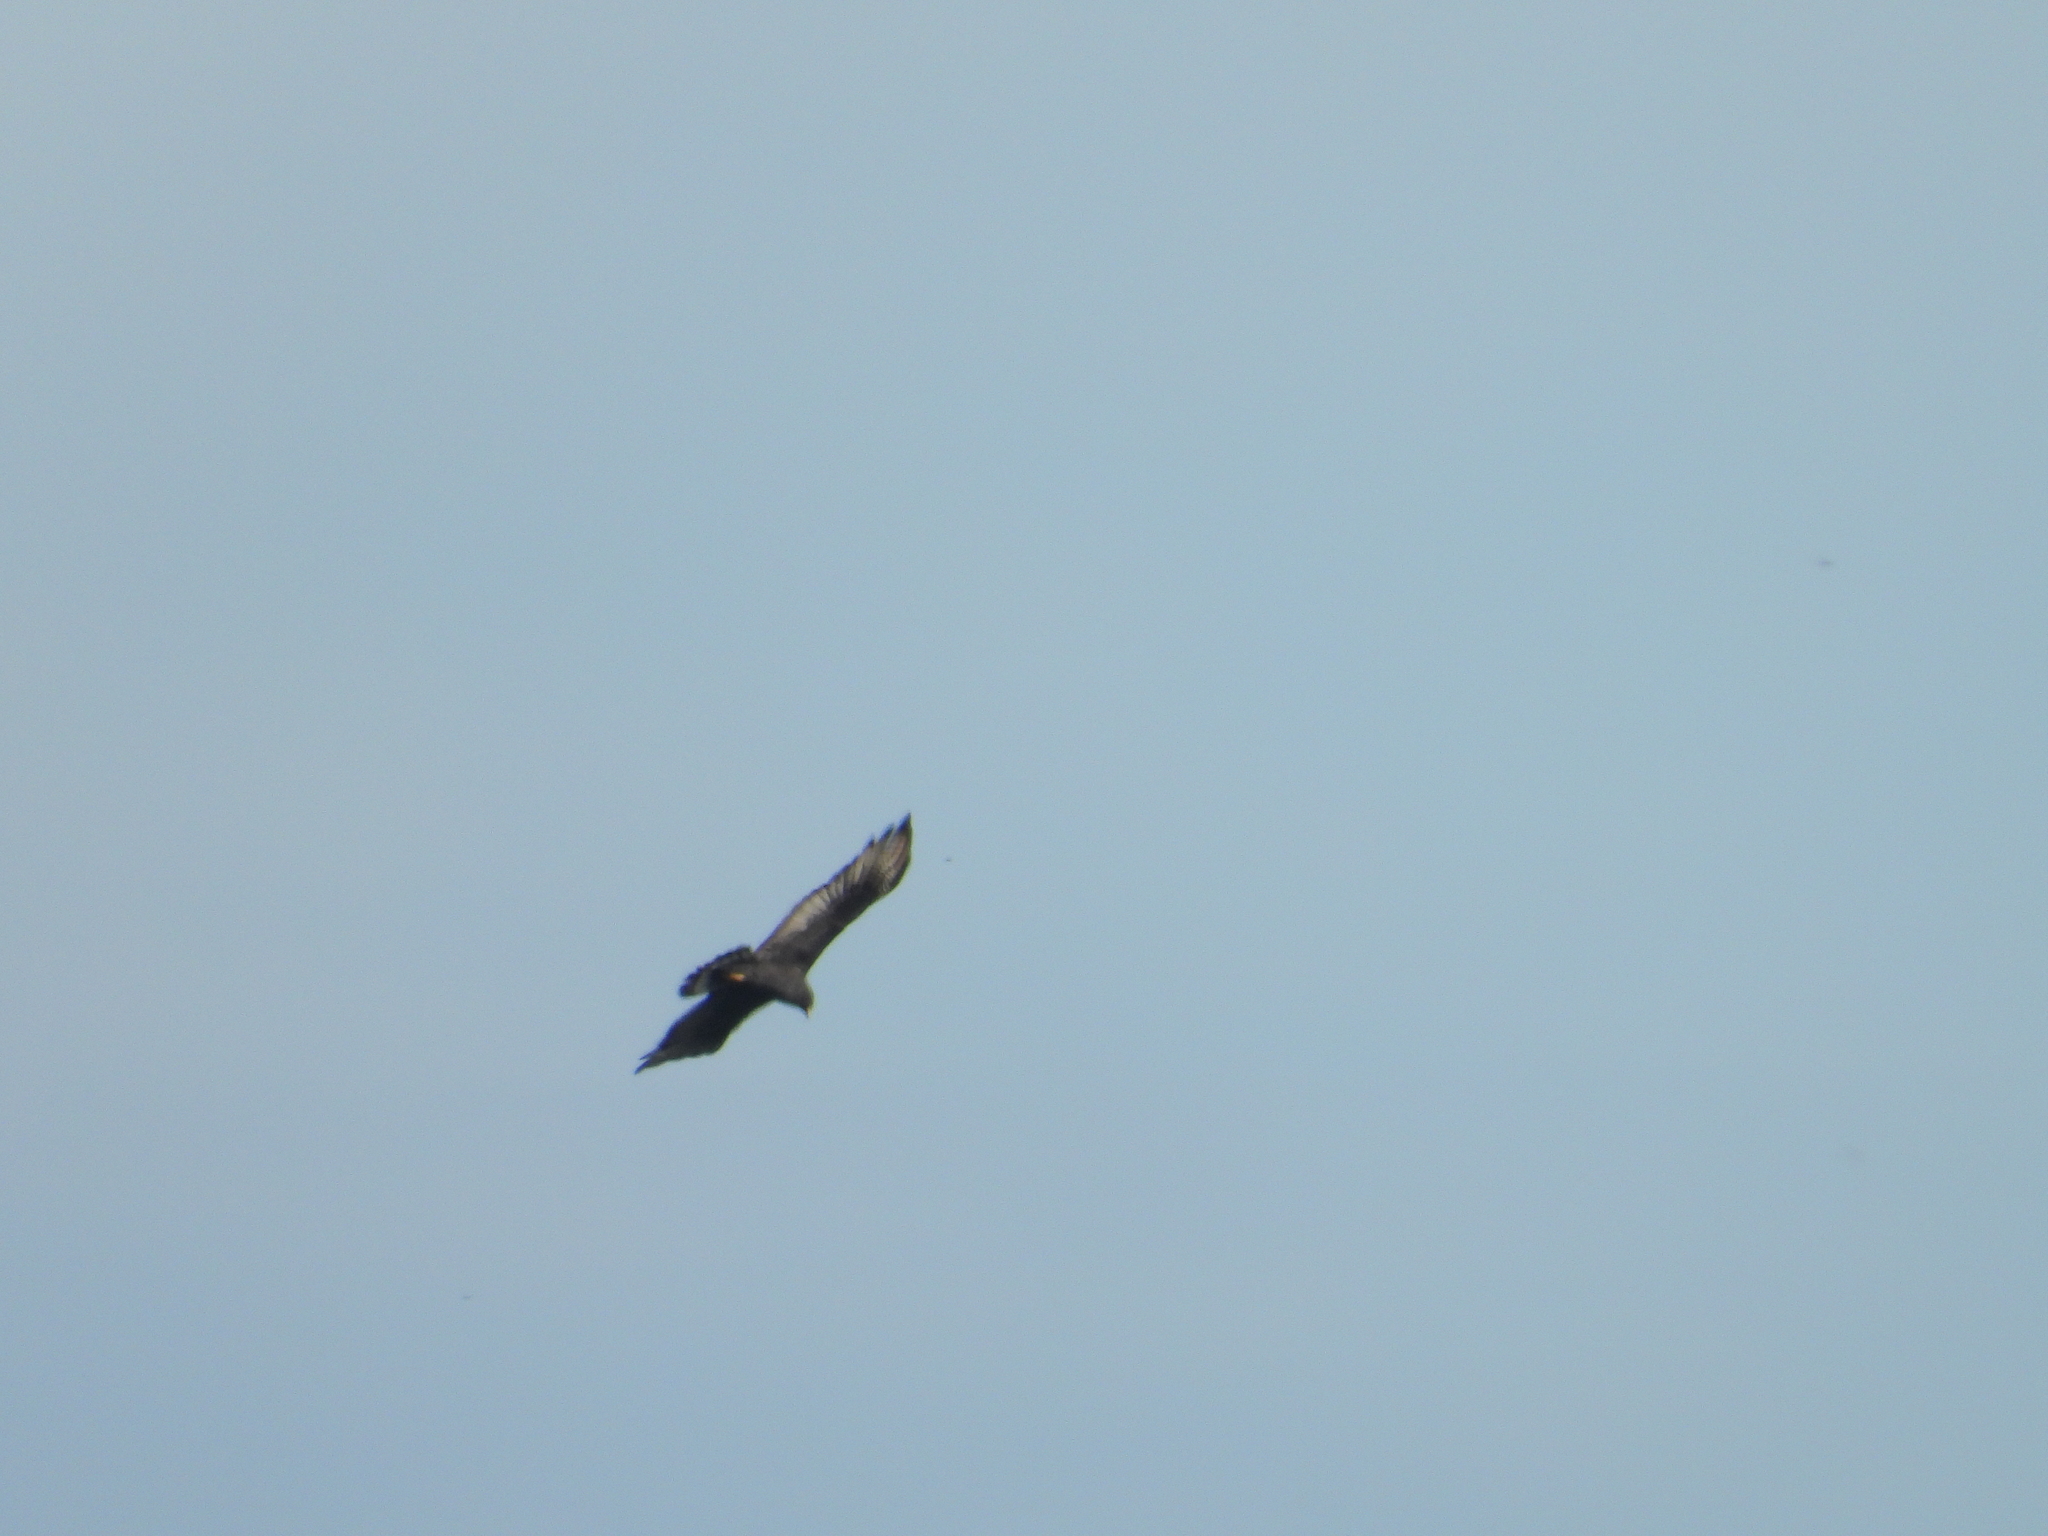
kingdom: Animalia
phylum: Chordata
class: Aves
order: Accipitriformes
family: Accipitridae
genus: Buteo
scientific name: Buteo albonotatus
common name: Zone-tailed hawk
